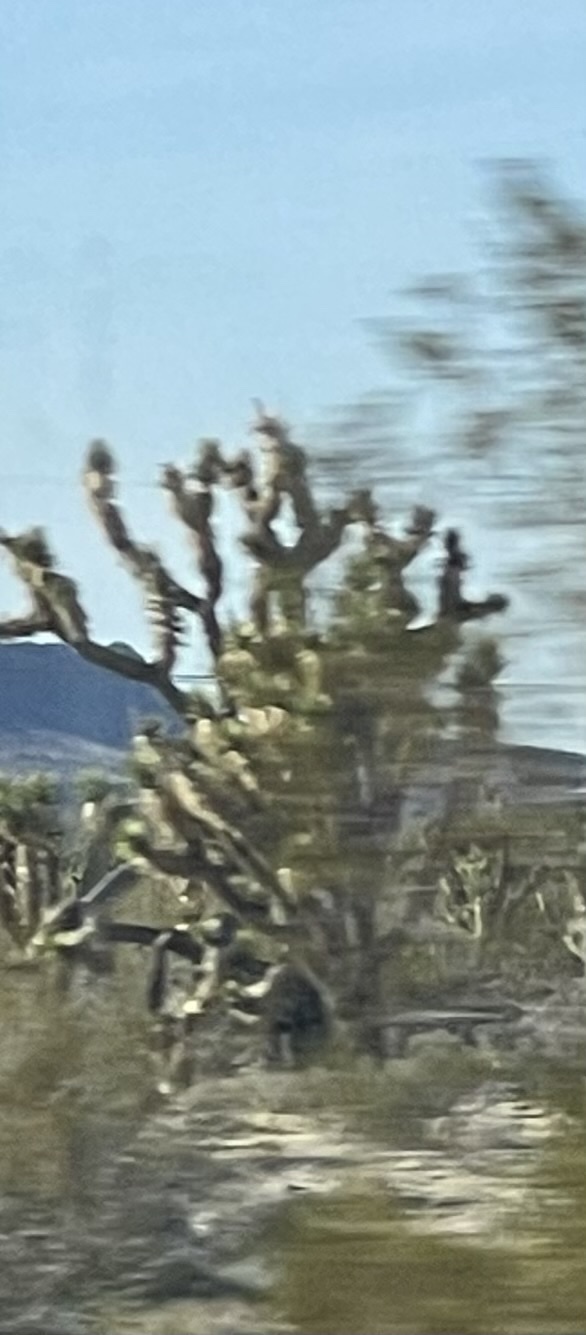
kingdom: Plantae
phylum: Tracheophyta
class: Liliopsida
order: Asparagales
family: Asparagaceae
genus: Yucca
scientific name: Yucca brevifolia
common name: Joshua tree
